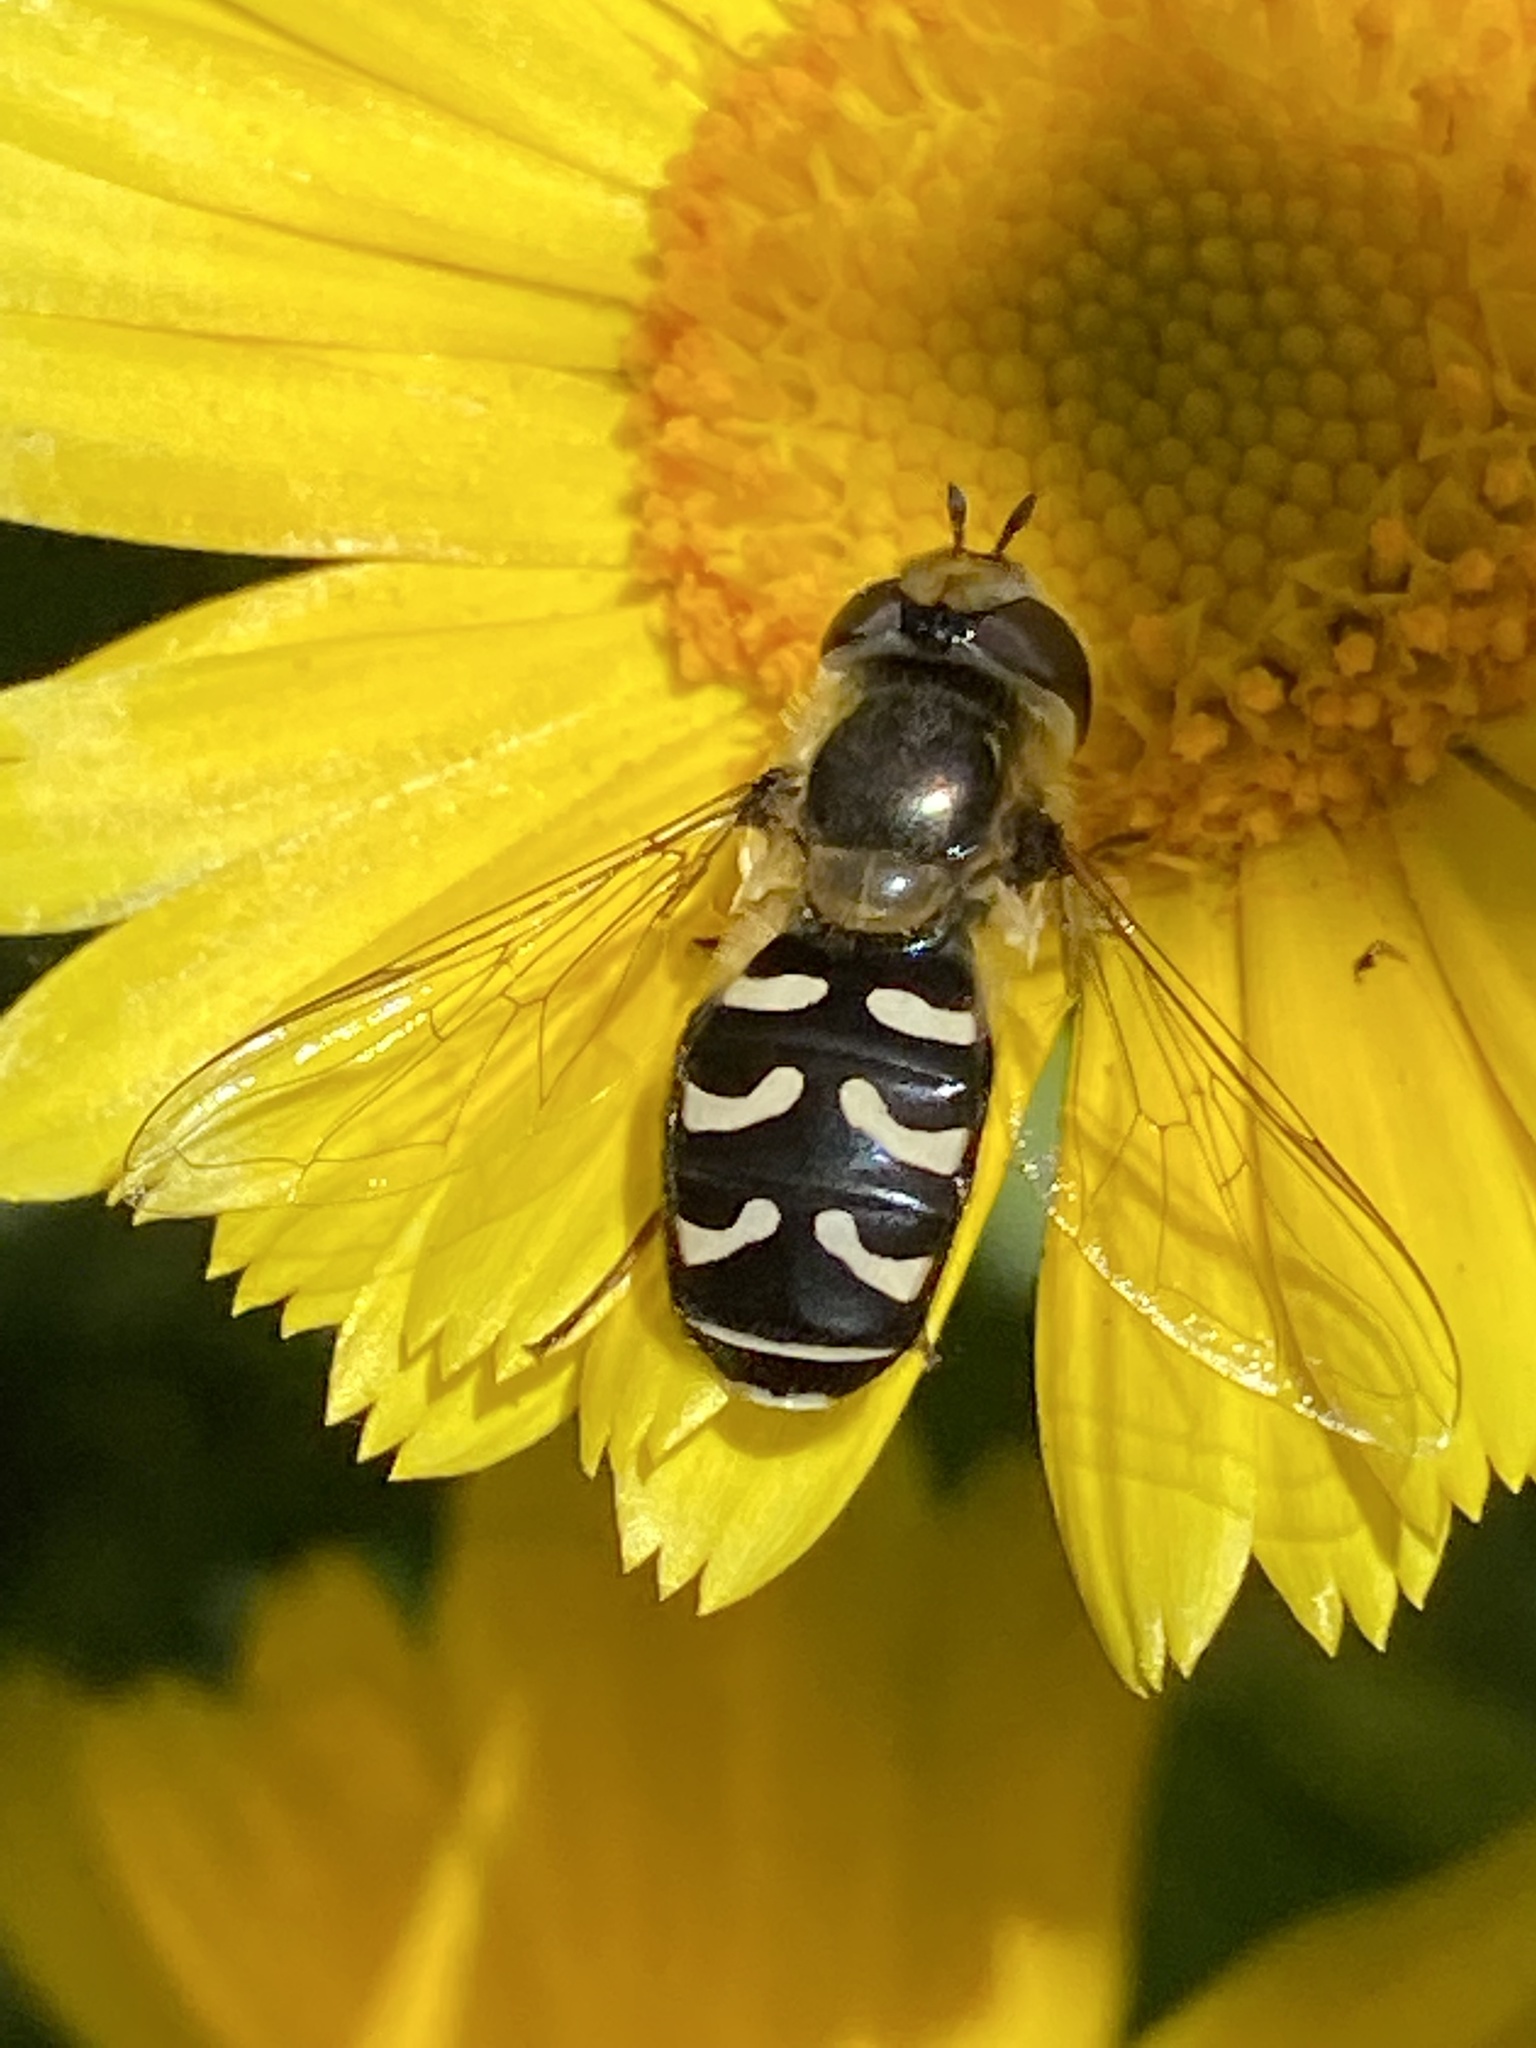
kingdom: Animalia
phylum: Arthropoda
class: Insecta
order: Diptera
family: Syrphidae
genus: Scaeva
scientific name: Scaeva affinis
